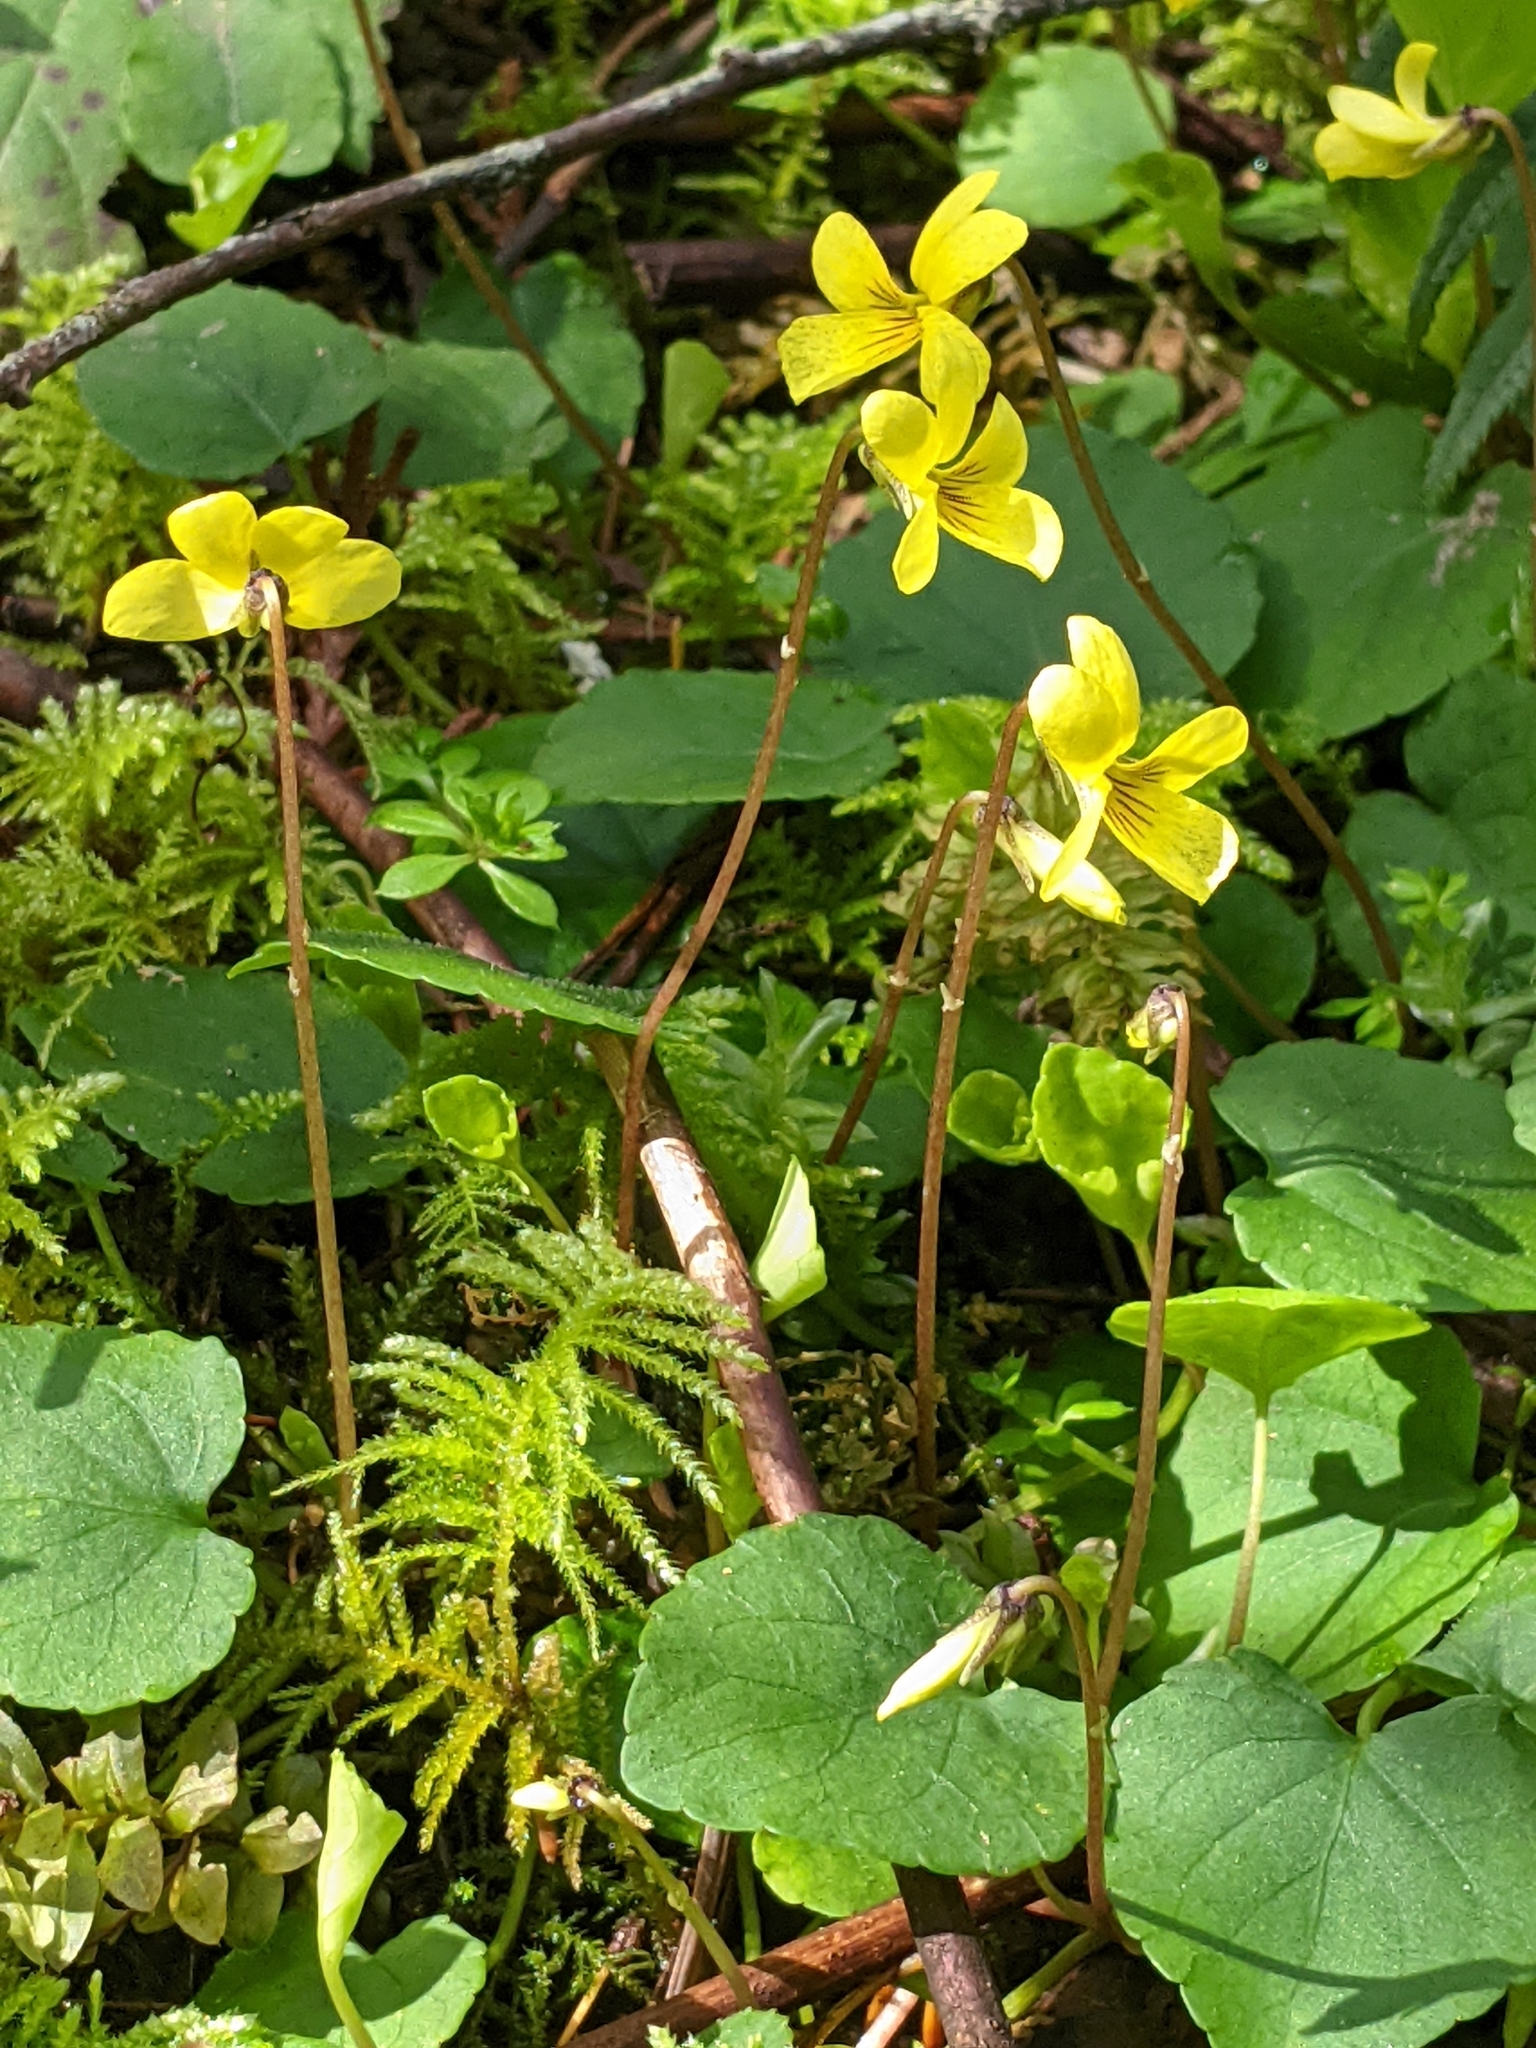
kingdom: Plantae
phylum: Tracheophyta
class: Magnoliopsida
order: Malpighiales
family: Violaceae
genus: Viola
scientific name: Viola sempervirens
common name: Evergreen violet
